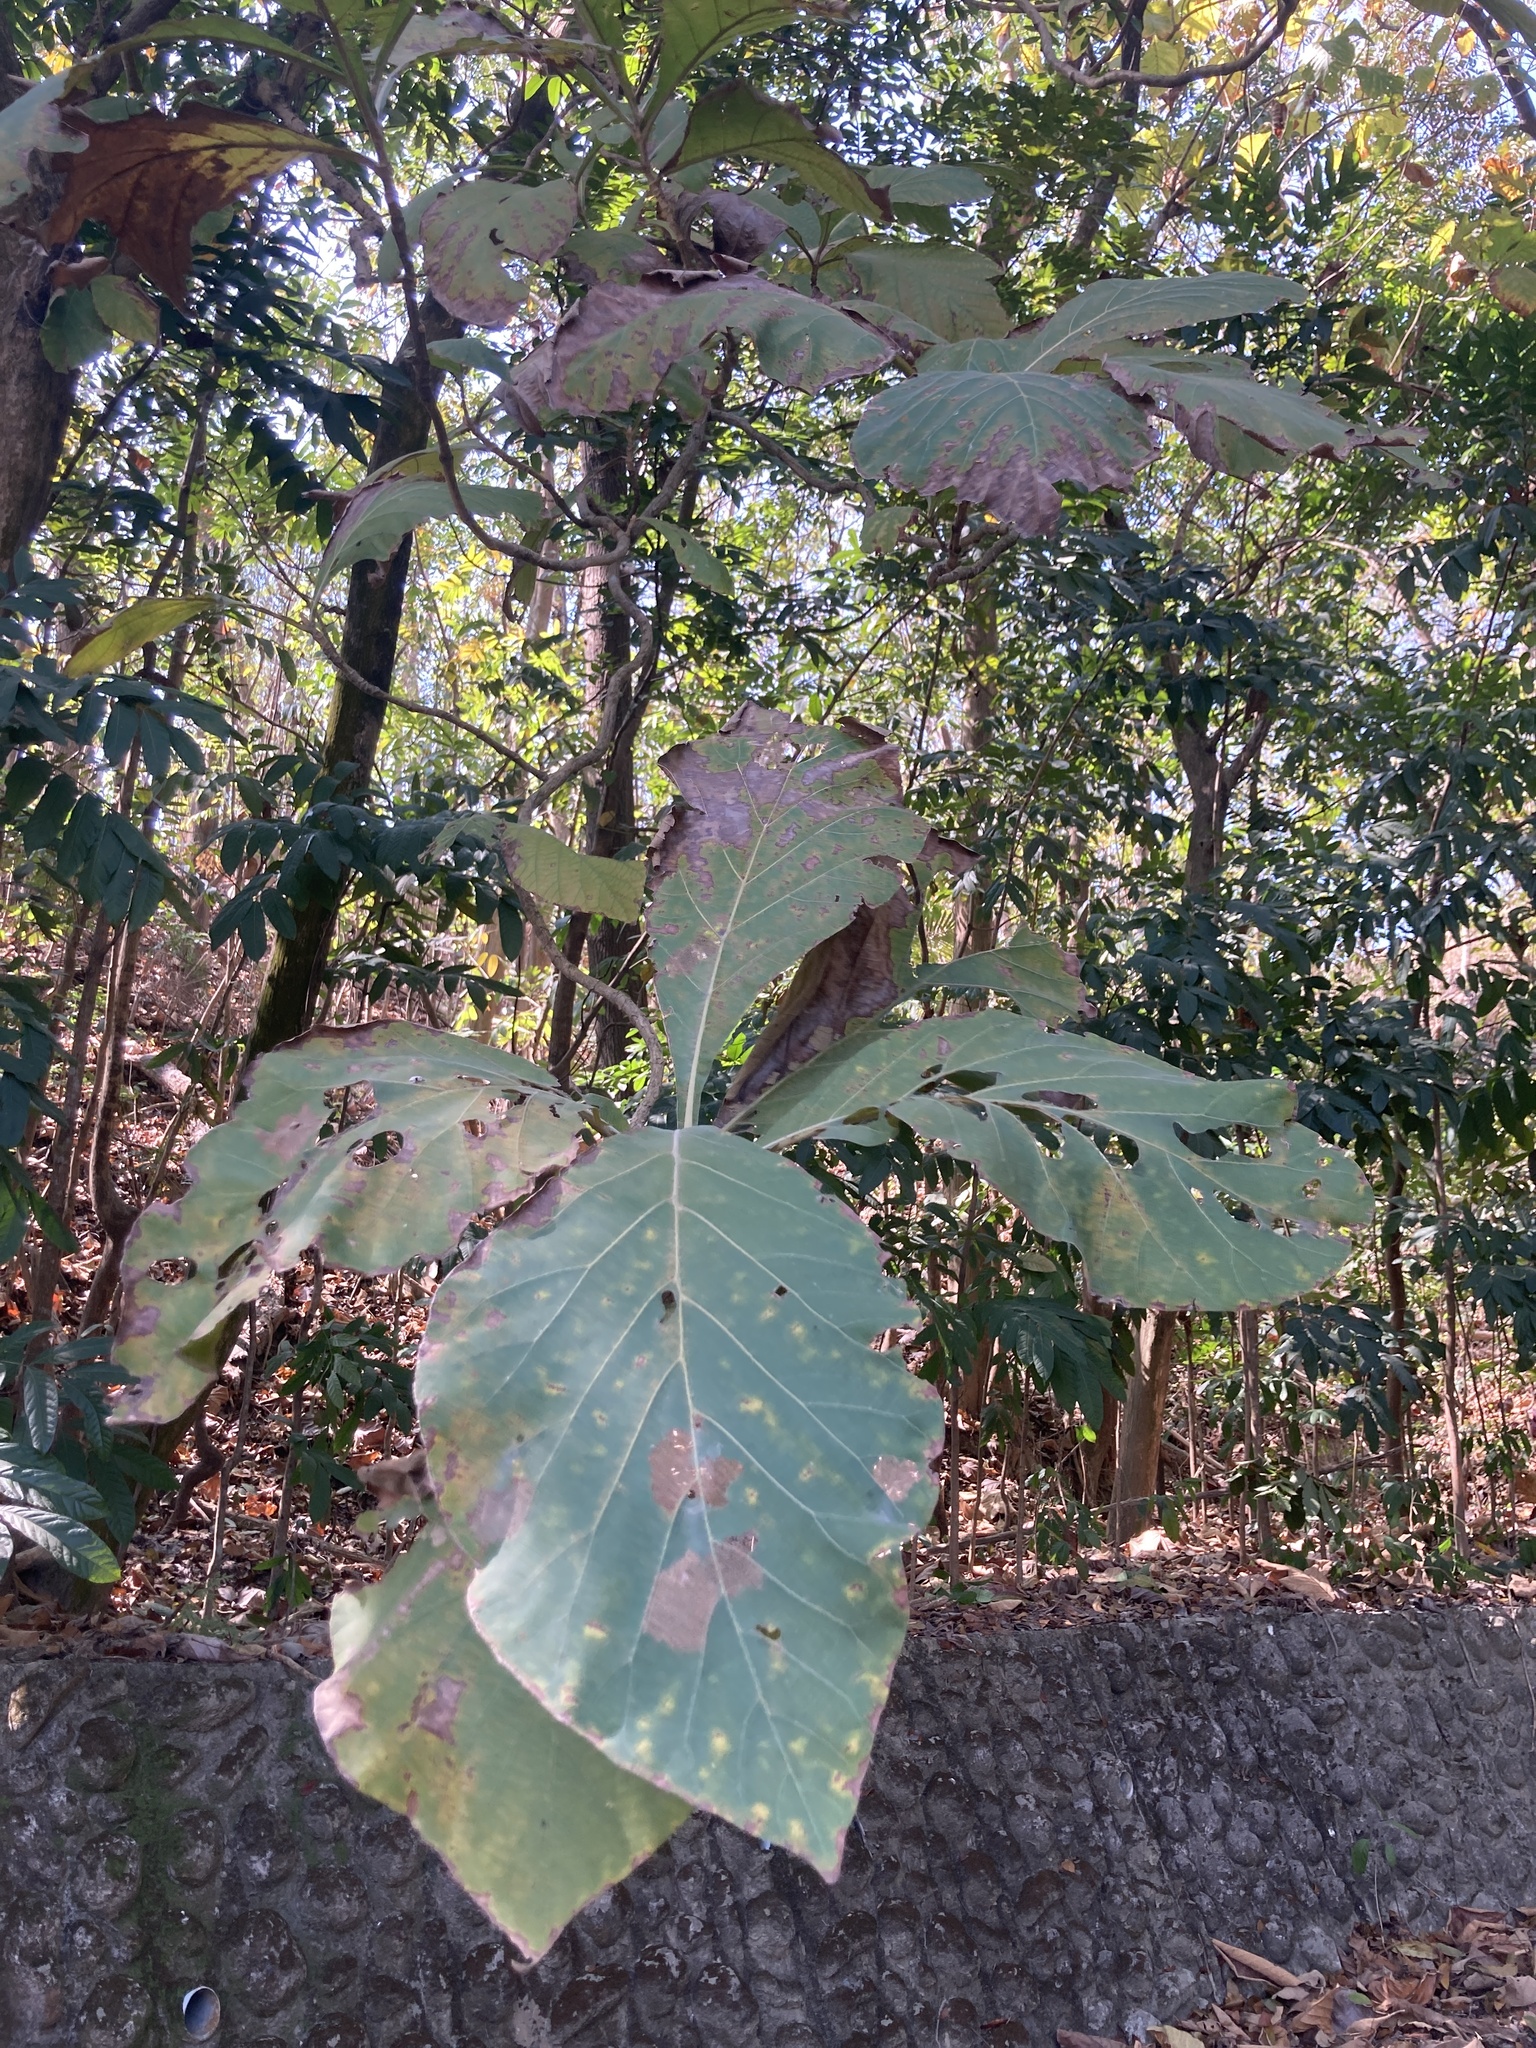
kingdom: Plantae
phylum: Tracheophyta
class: Magnoliopsida
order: Lamiales
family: Lamiaceae
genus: Tectona
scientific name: Tectona grandis
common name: Teak
